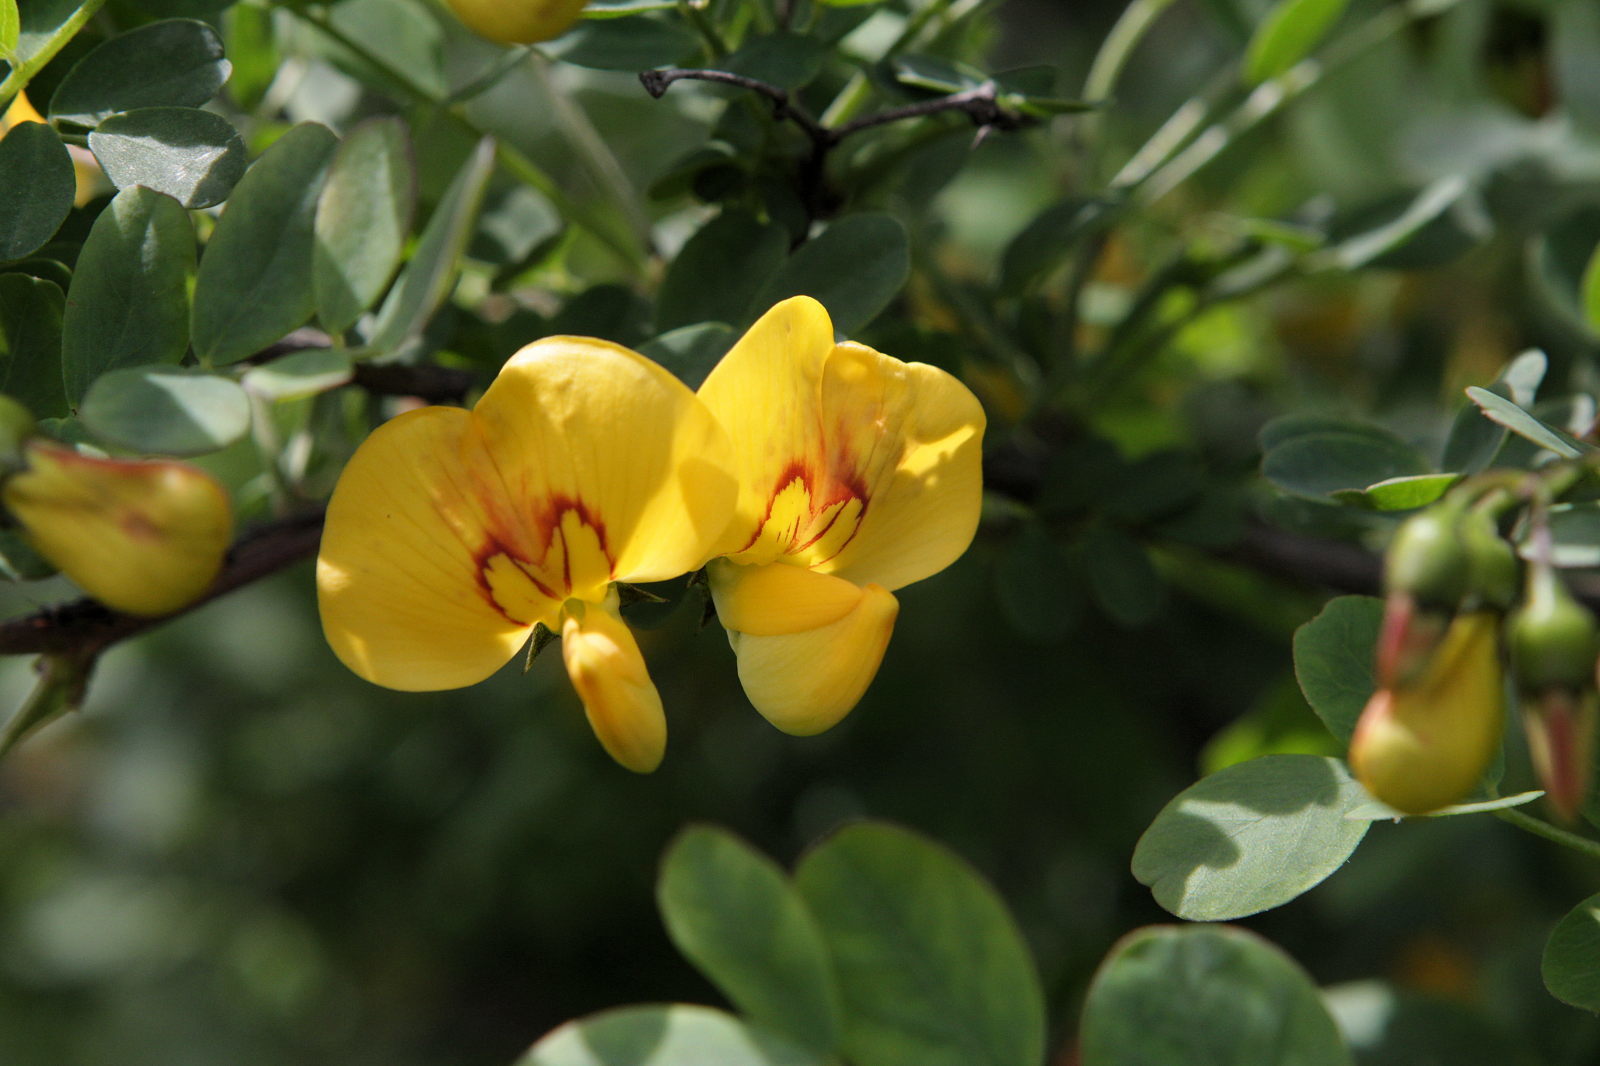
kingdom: Plantae
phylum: Tracheophyta
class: Magnoliopsida
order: Fabales
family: Fabaceae
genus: Colutea
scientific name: Colutea arborescens
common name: Bladder-senna
